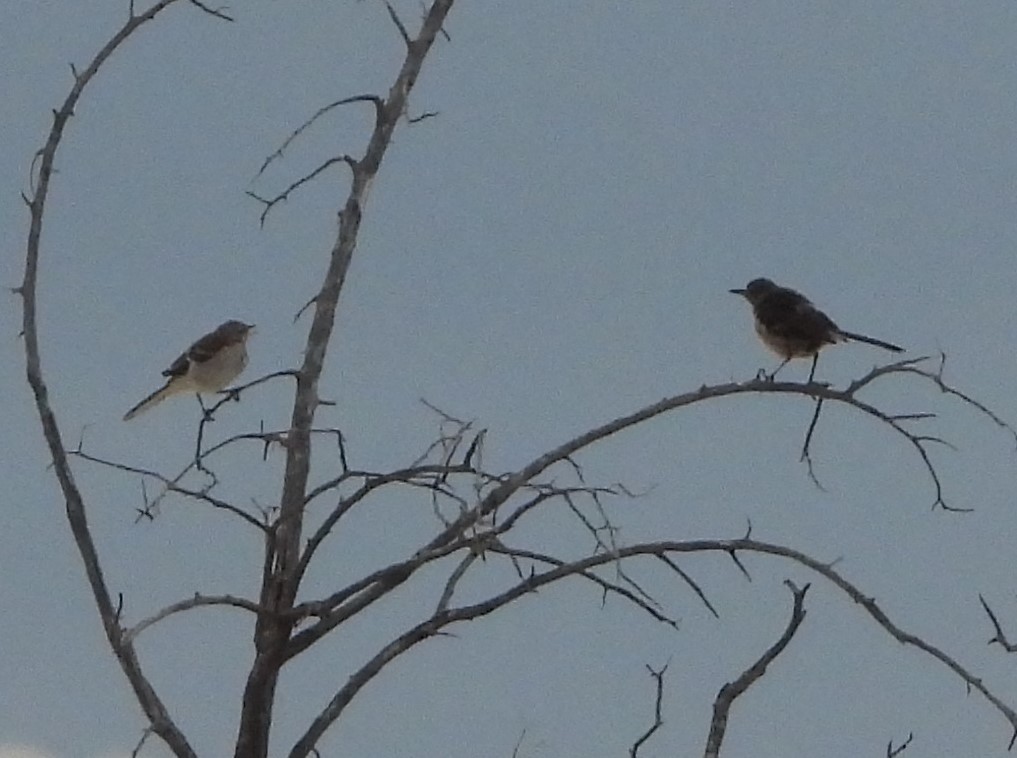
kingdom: Animalia
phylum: Chordata
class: Aves
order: Passeriformes
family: Mimidae
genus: Mimus
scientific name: Mimus polyglottos
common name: Northern mockingbird
